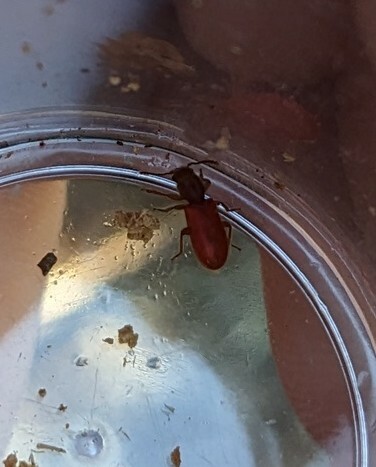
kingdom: Animalia
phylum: Arthropoda
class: Insecta
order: Coleoptera
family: Thanerocleridae
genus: Zenodosus
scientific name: Zenodosus sanguineus
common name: Blood-colored checkered beetle
